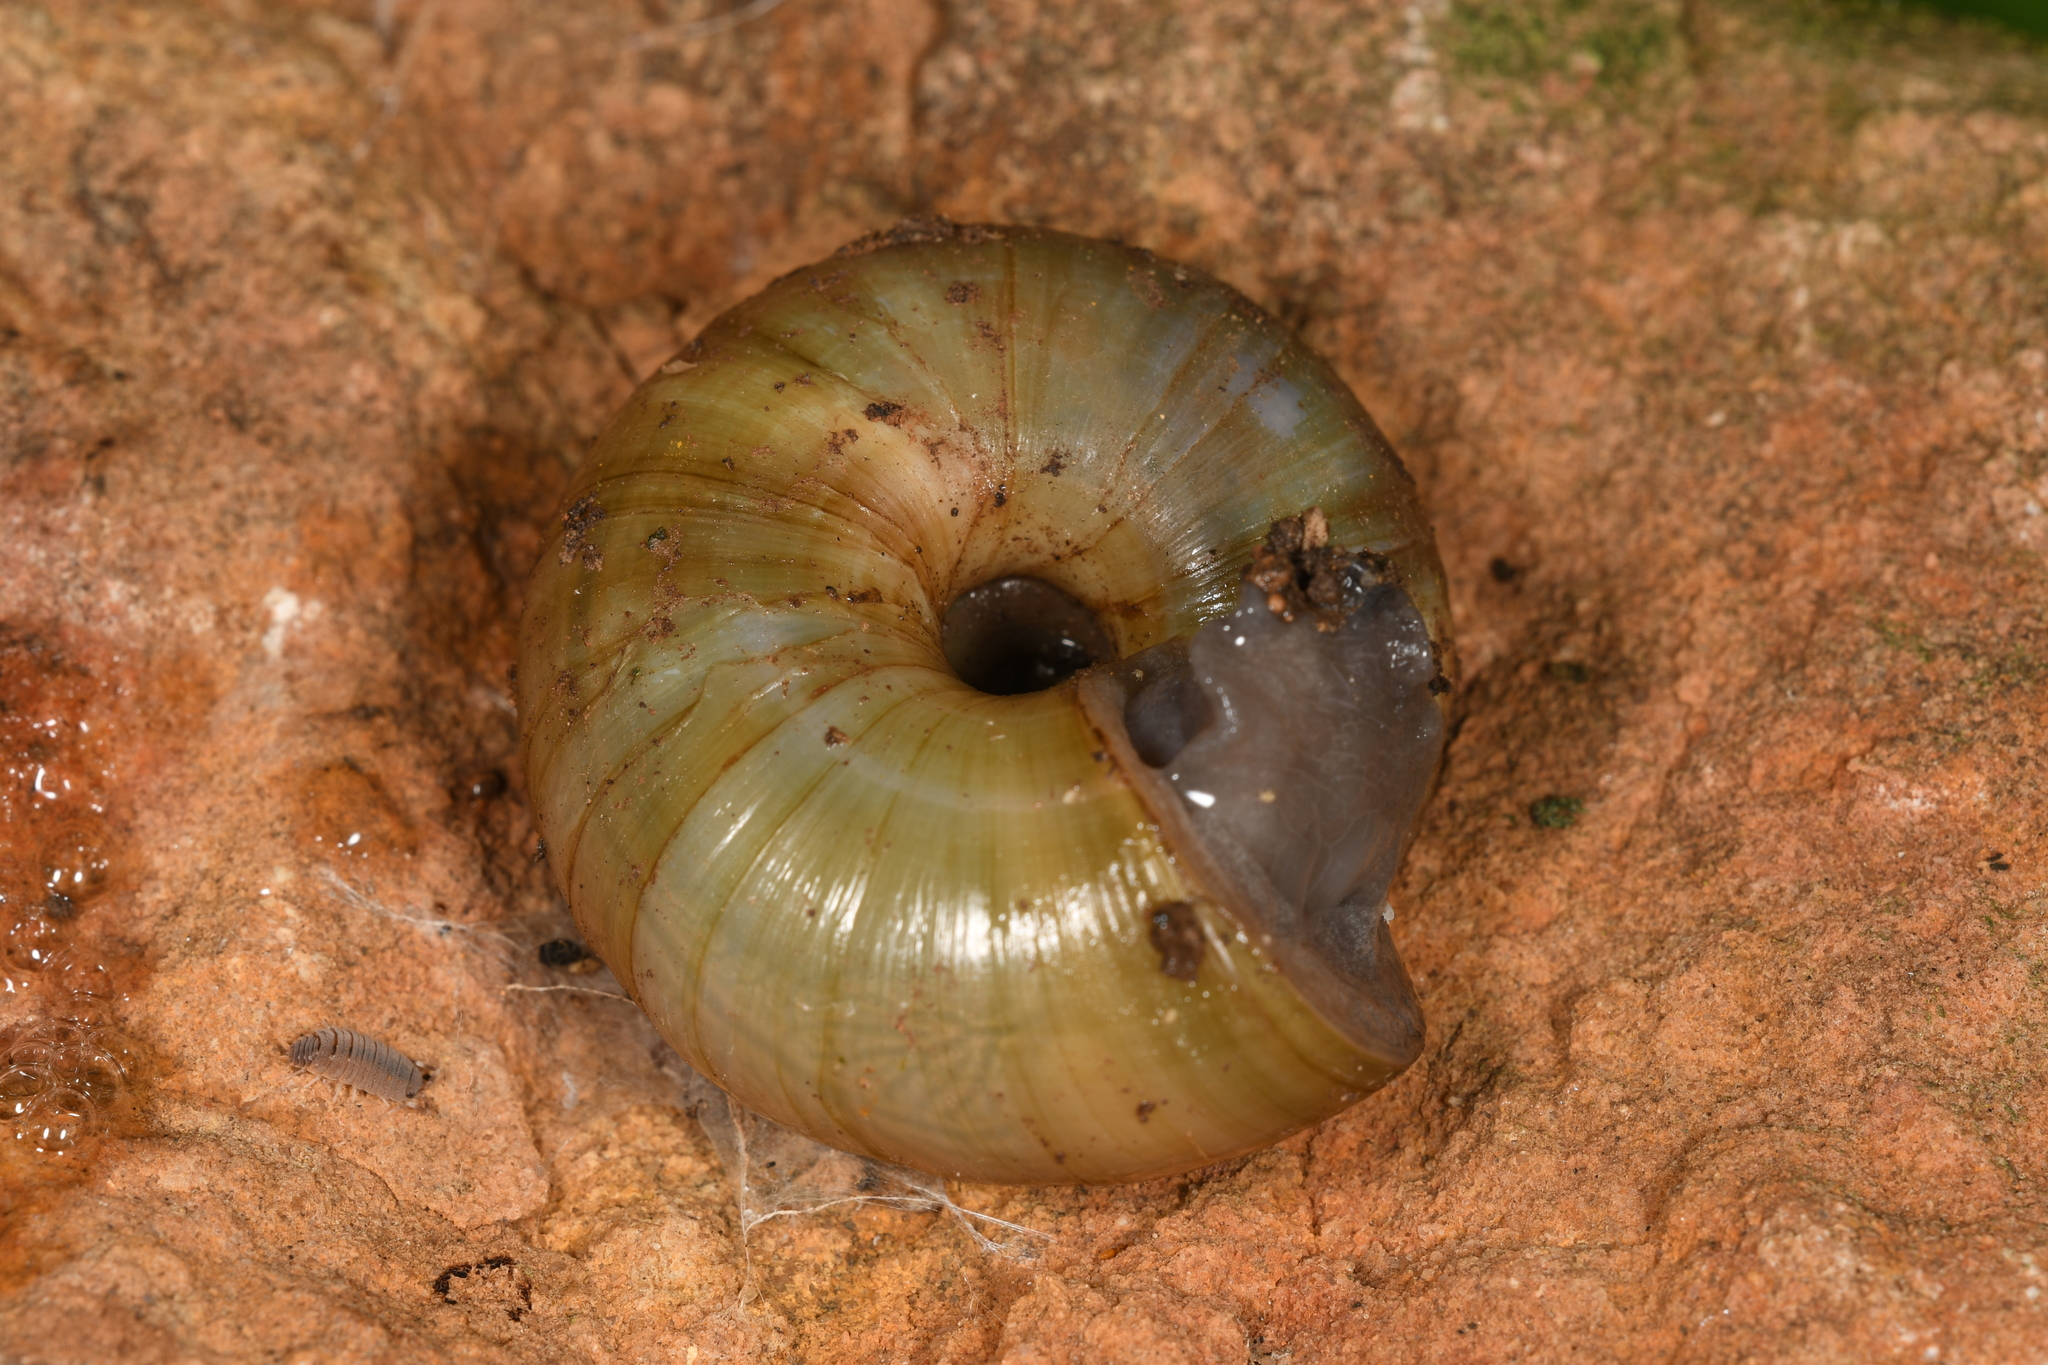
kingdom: Animalia
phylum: Mollusca
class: Gastropoda
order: Stylommatophora
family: Zonitidae
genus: Zonites
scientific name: Zonites algirus
